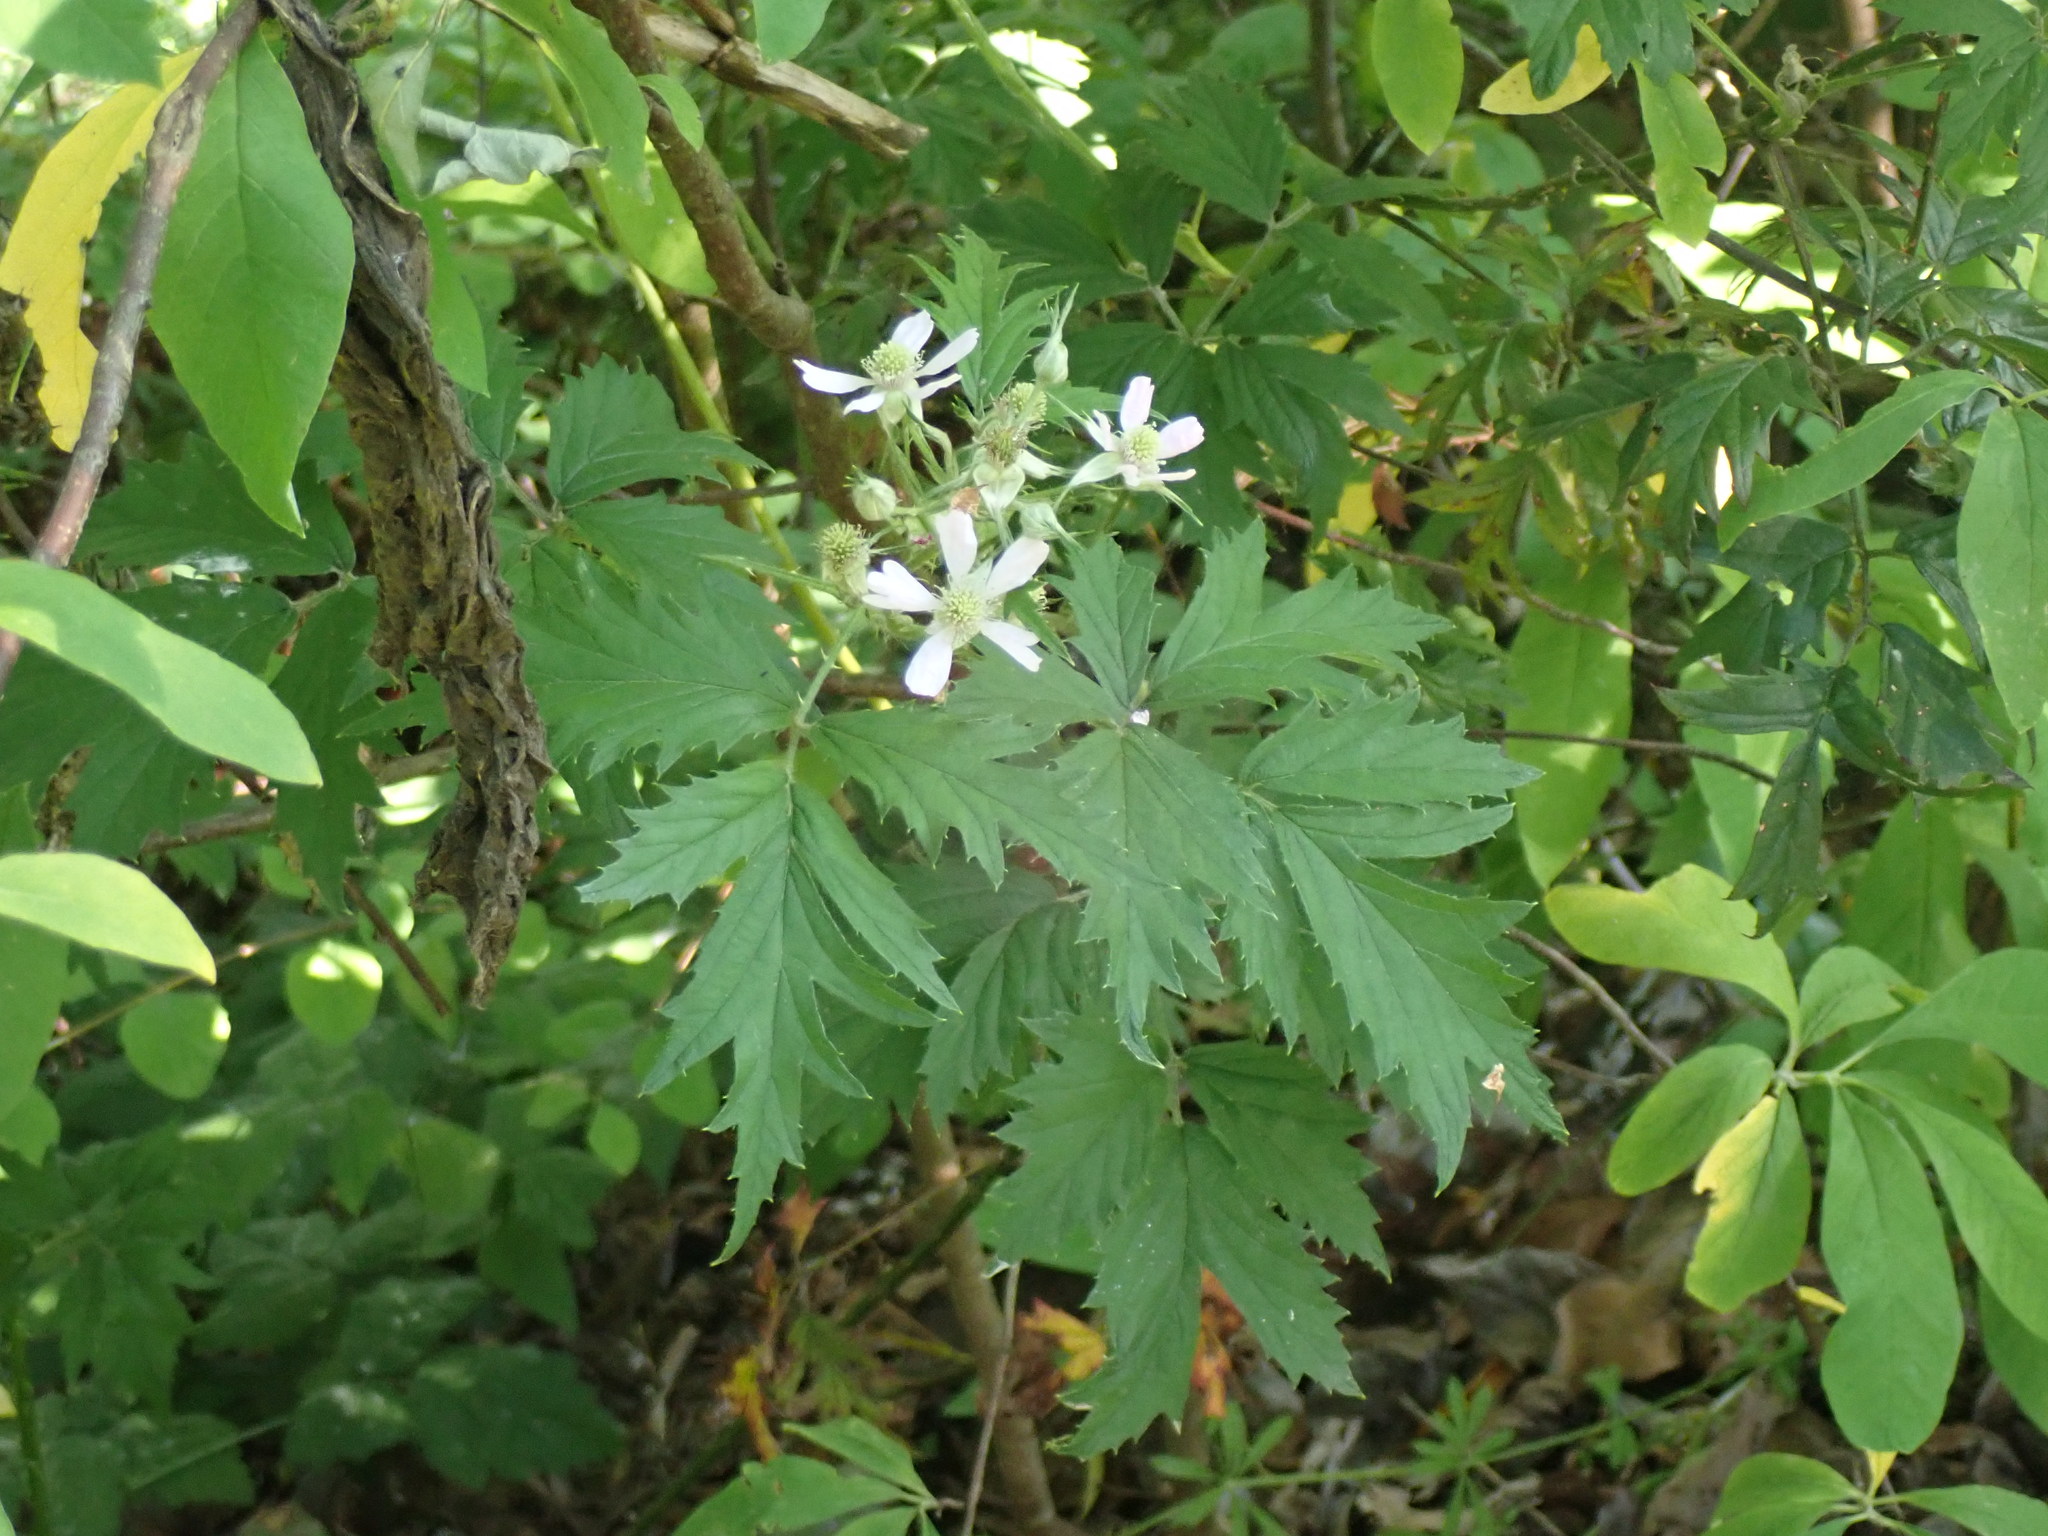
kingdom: Plantae
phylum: Tracheophyta
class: Magnoliopsida
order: Rosales
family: Rosaceae
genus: Rubus
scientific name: Rubus laciniatus
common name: Evergreen blackberry
